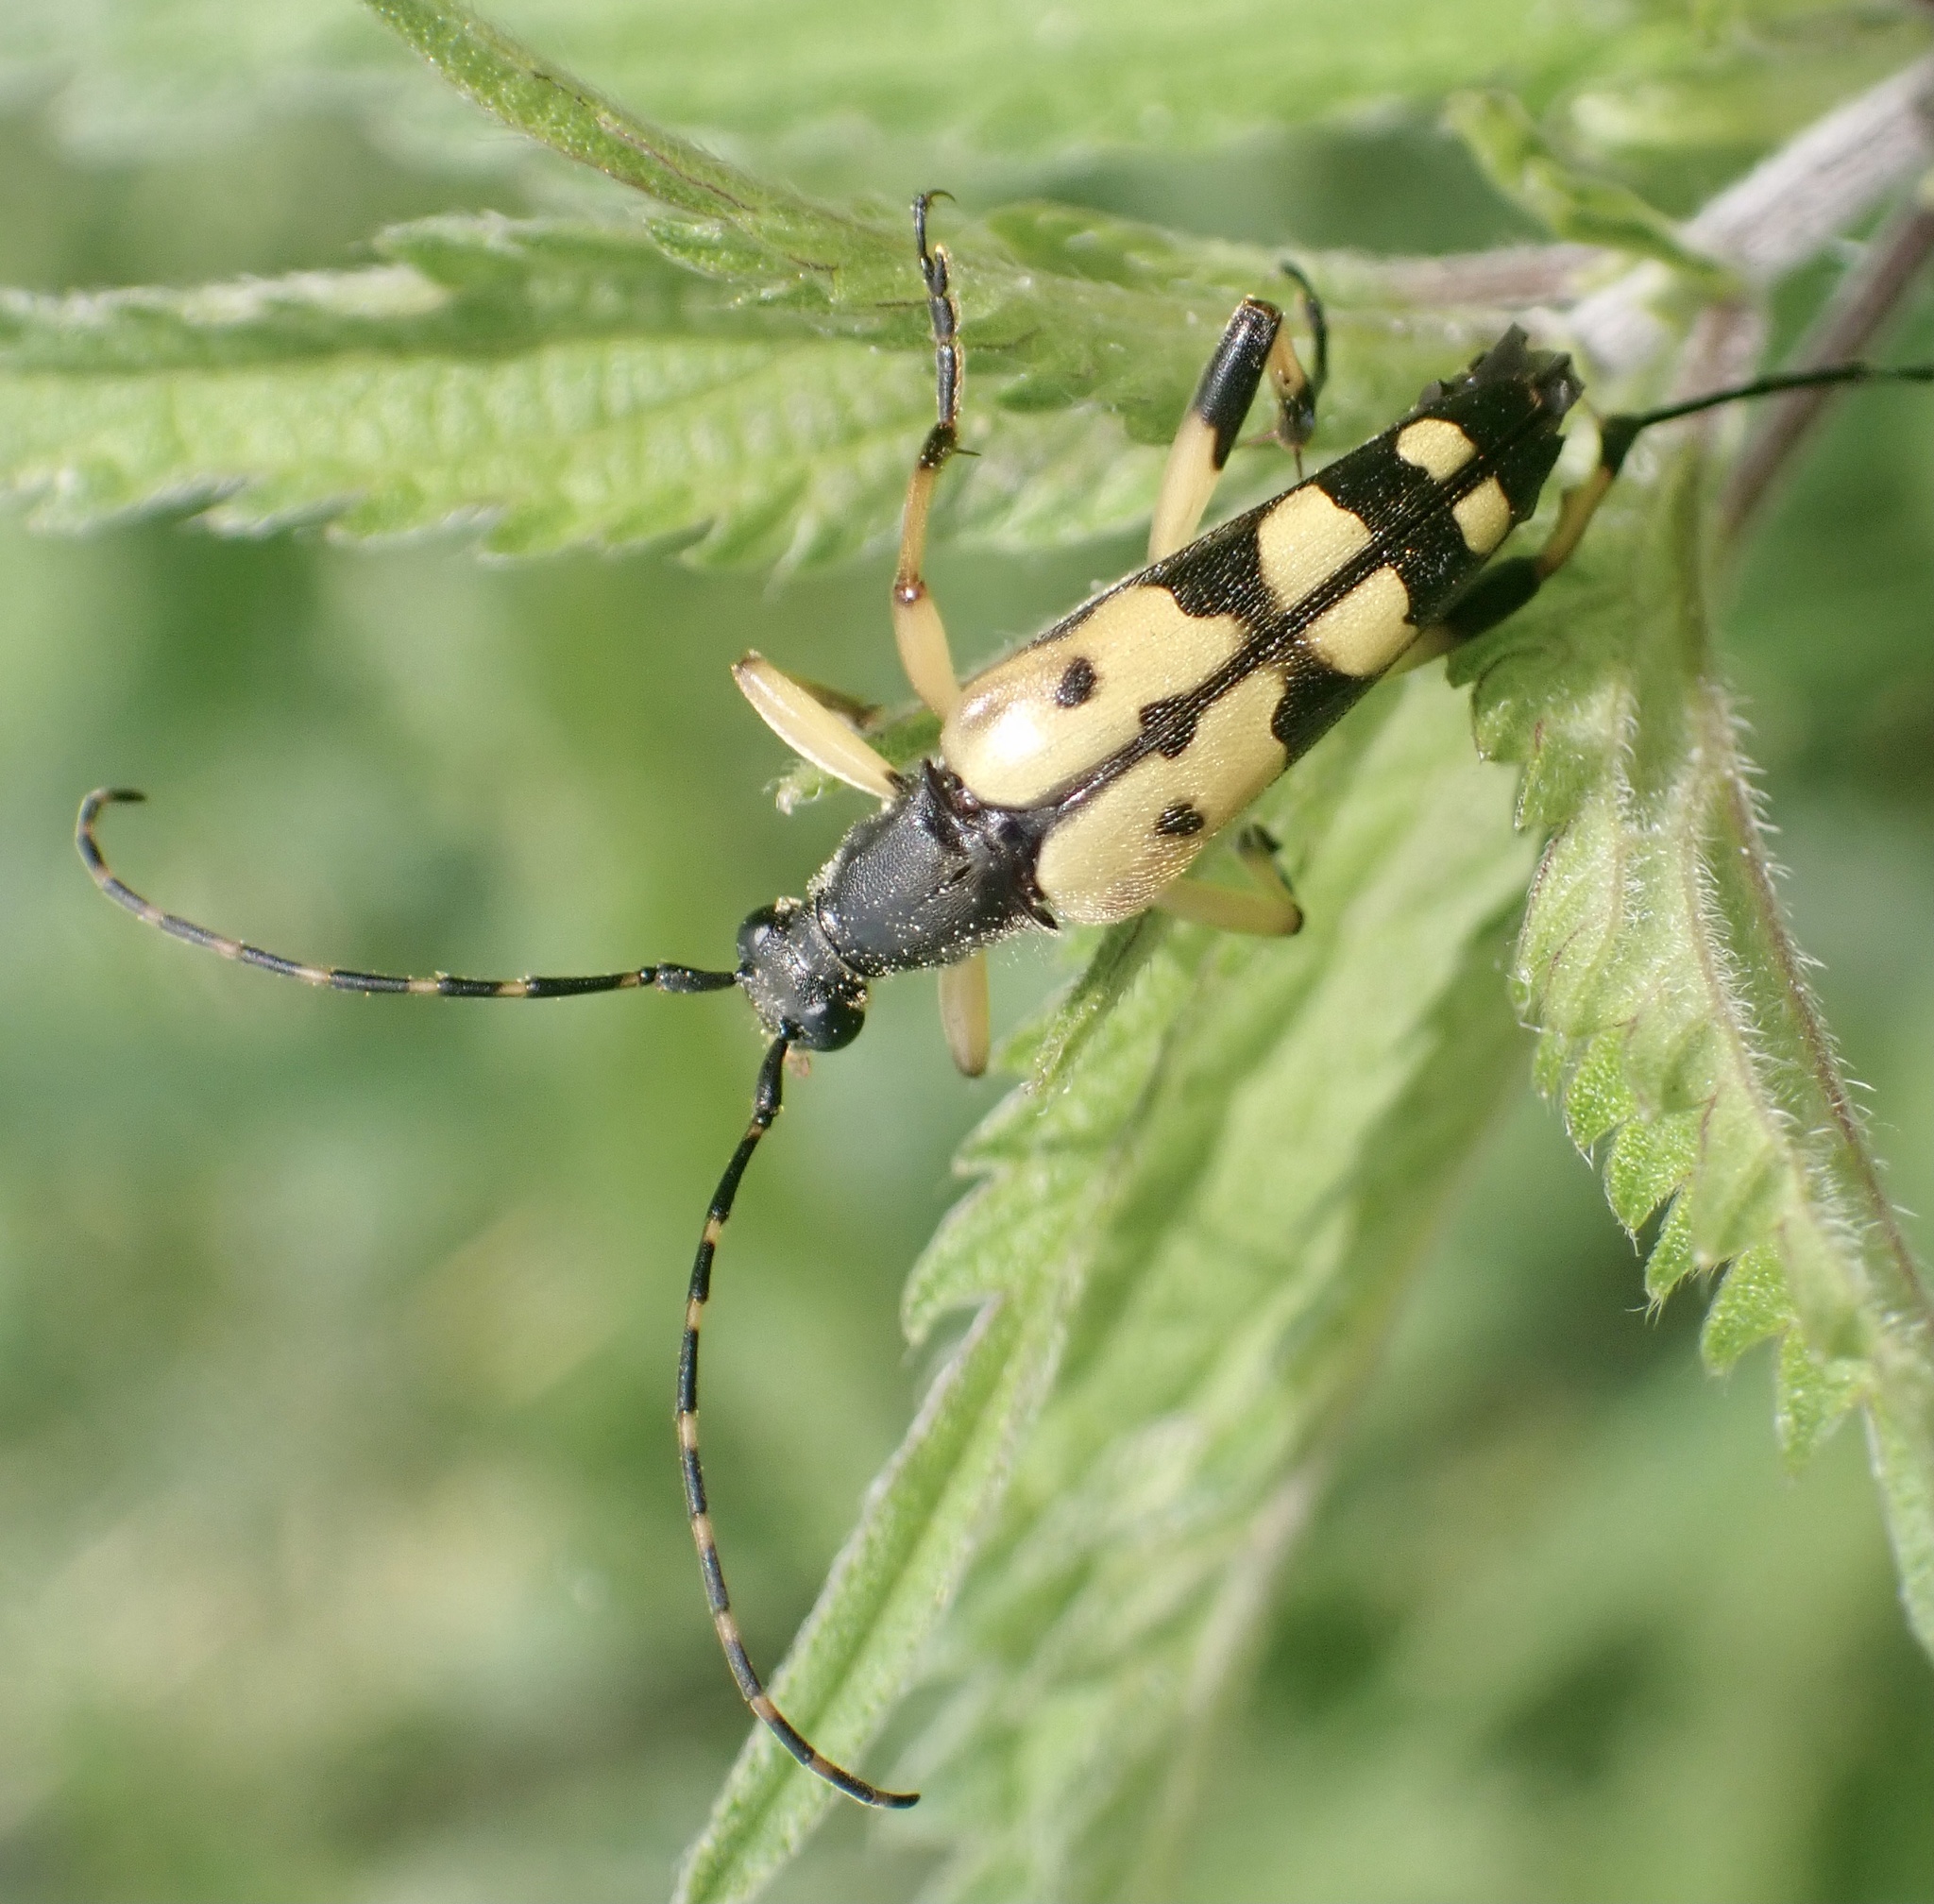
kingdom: Animalia
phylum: Arthropoda
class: Insecta
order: Coleoptera
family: Cerambycidae
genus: Rutpela
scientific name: Rutpela maculata
